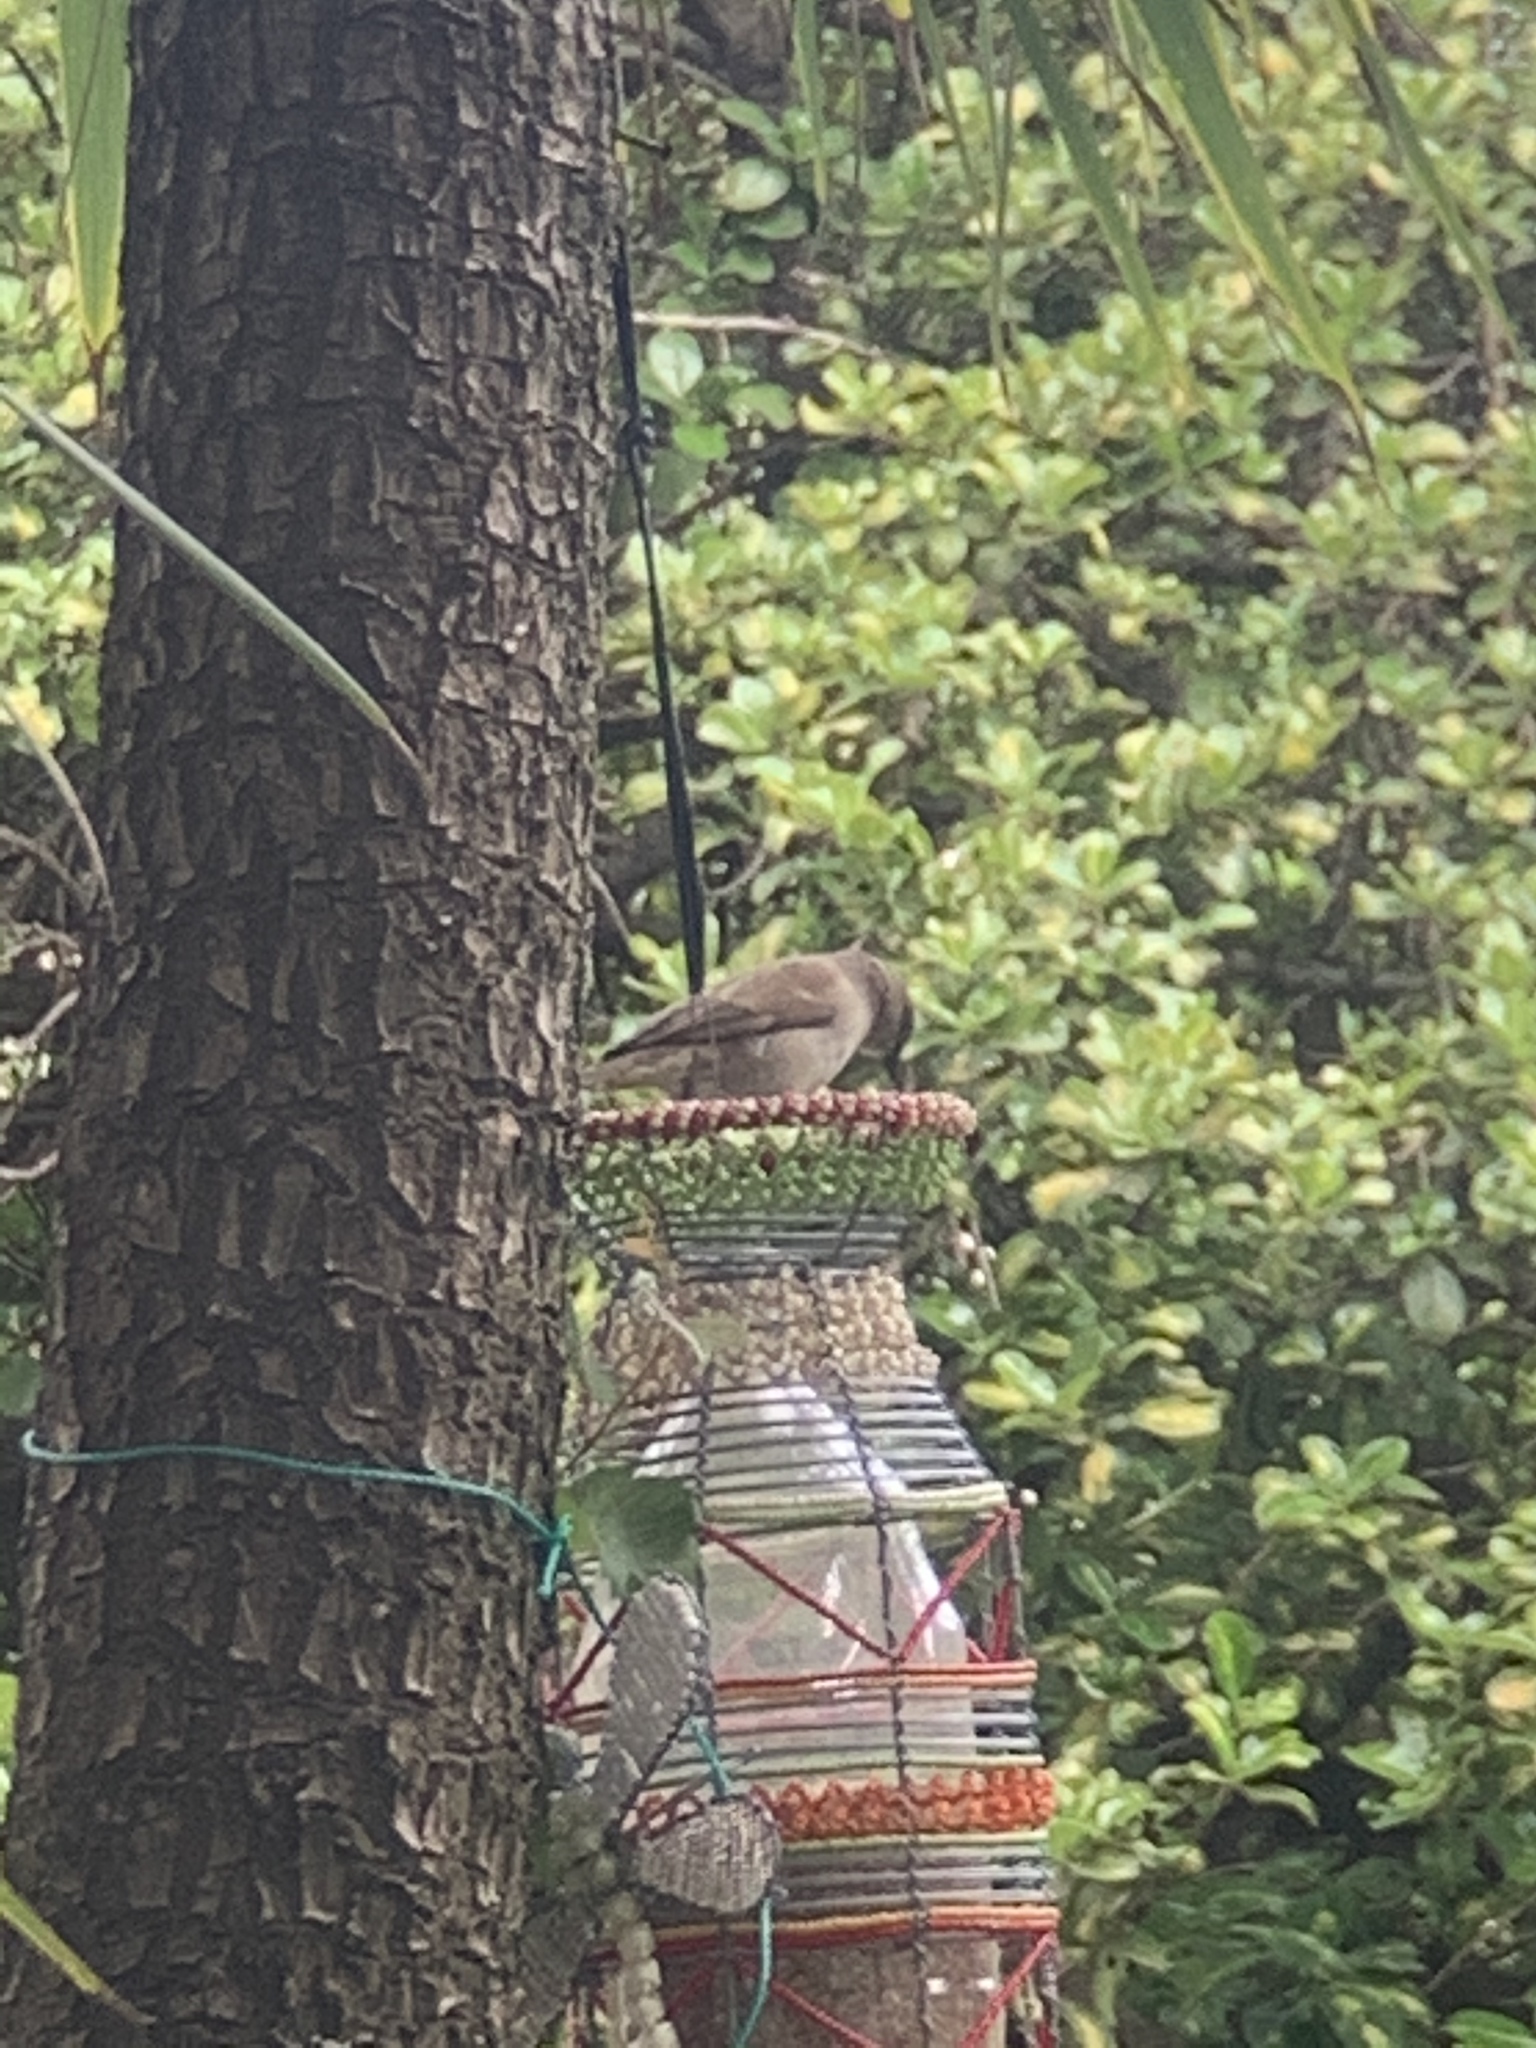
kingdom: Animalia
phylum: Chordata
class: Aves
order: Passeriformes
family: Passeridae
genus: Passer
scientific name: Passer diffusus
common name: Southern grey-headed sparrow
